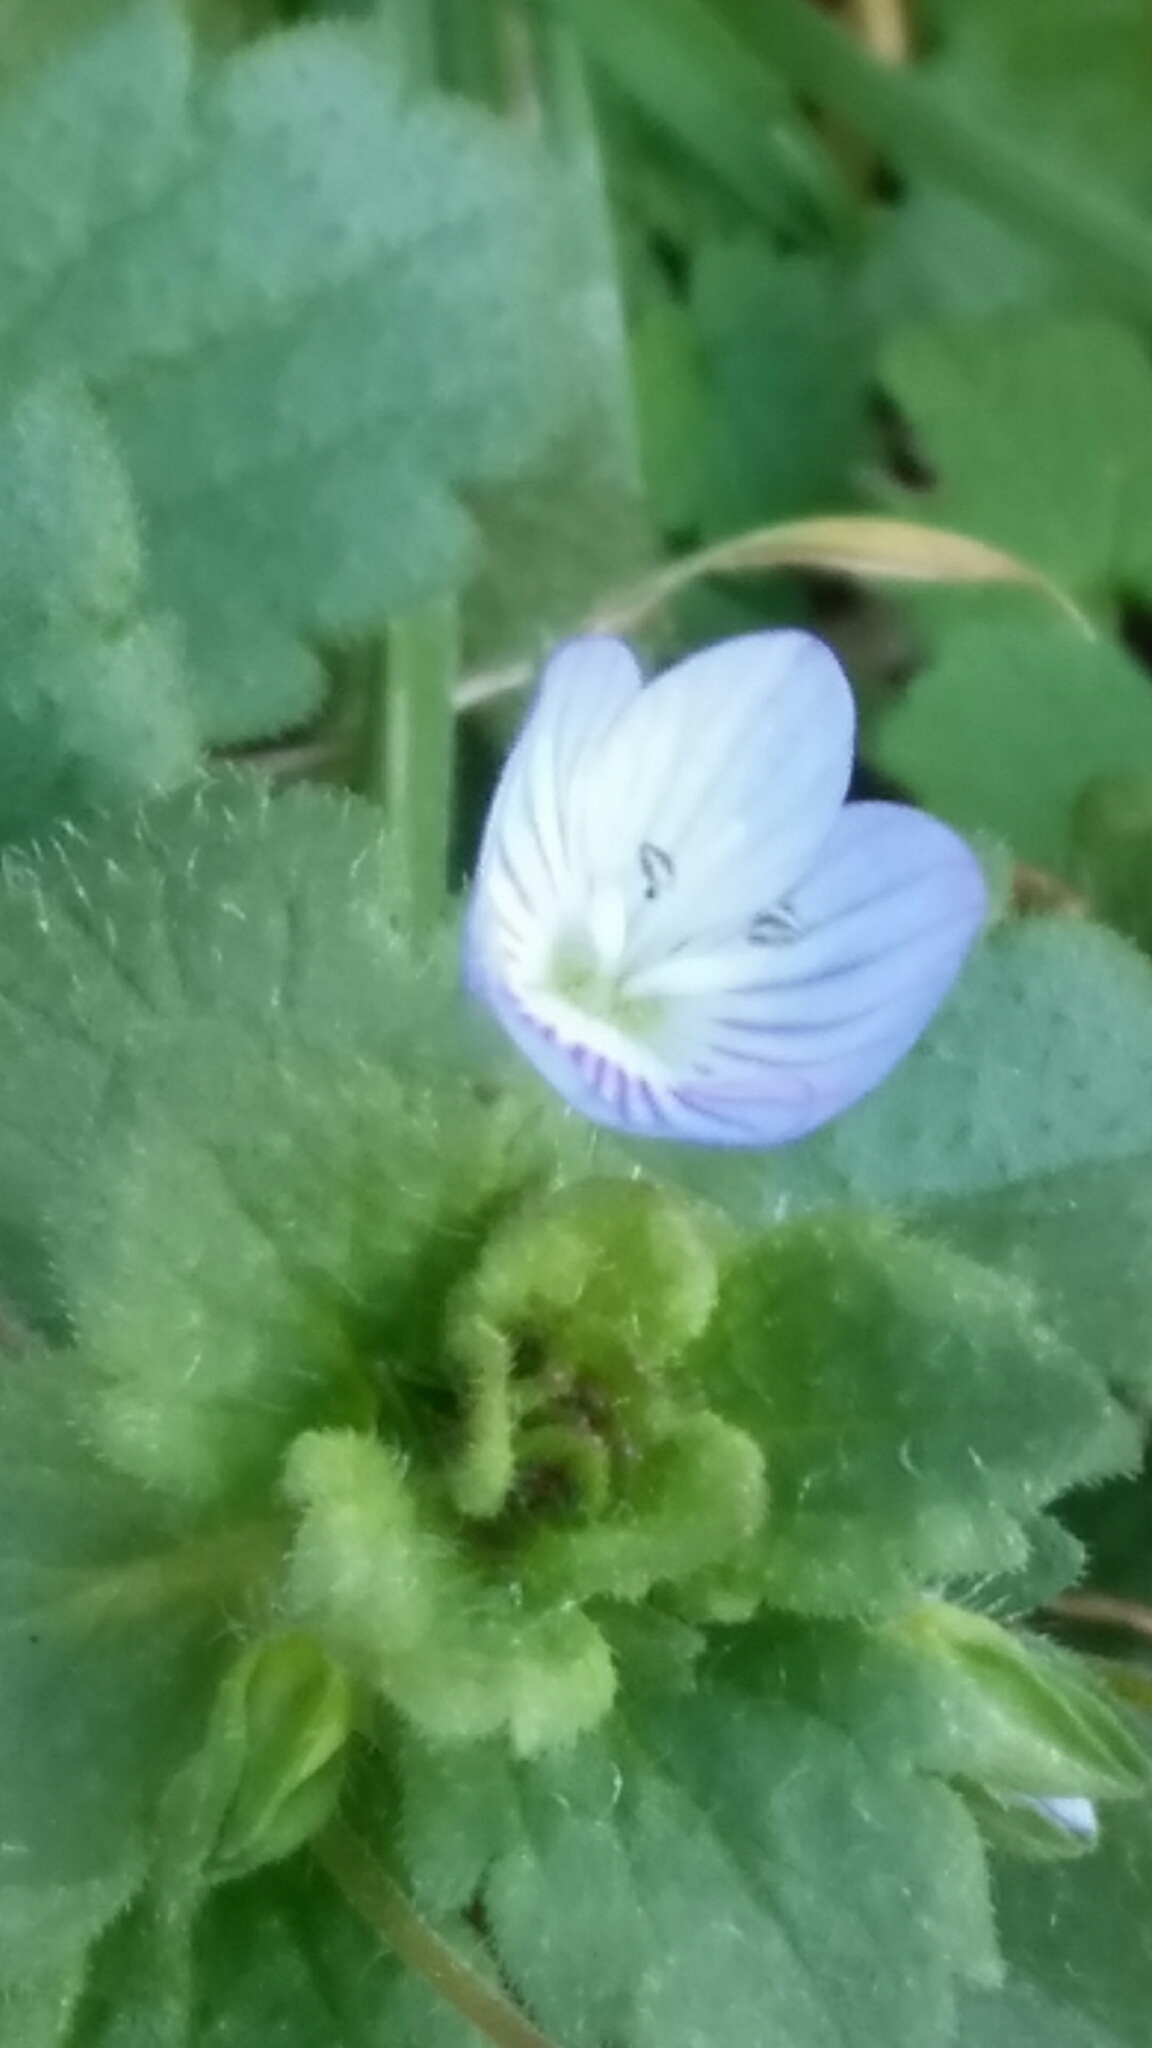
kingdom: Plantae
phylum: Tracheophyta
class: Magnoliopsida
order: Lamiales
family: Plantaginaceae
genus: Veronica
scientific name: Veronica persica
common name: Common field-speedwell
